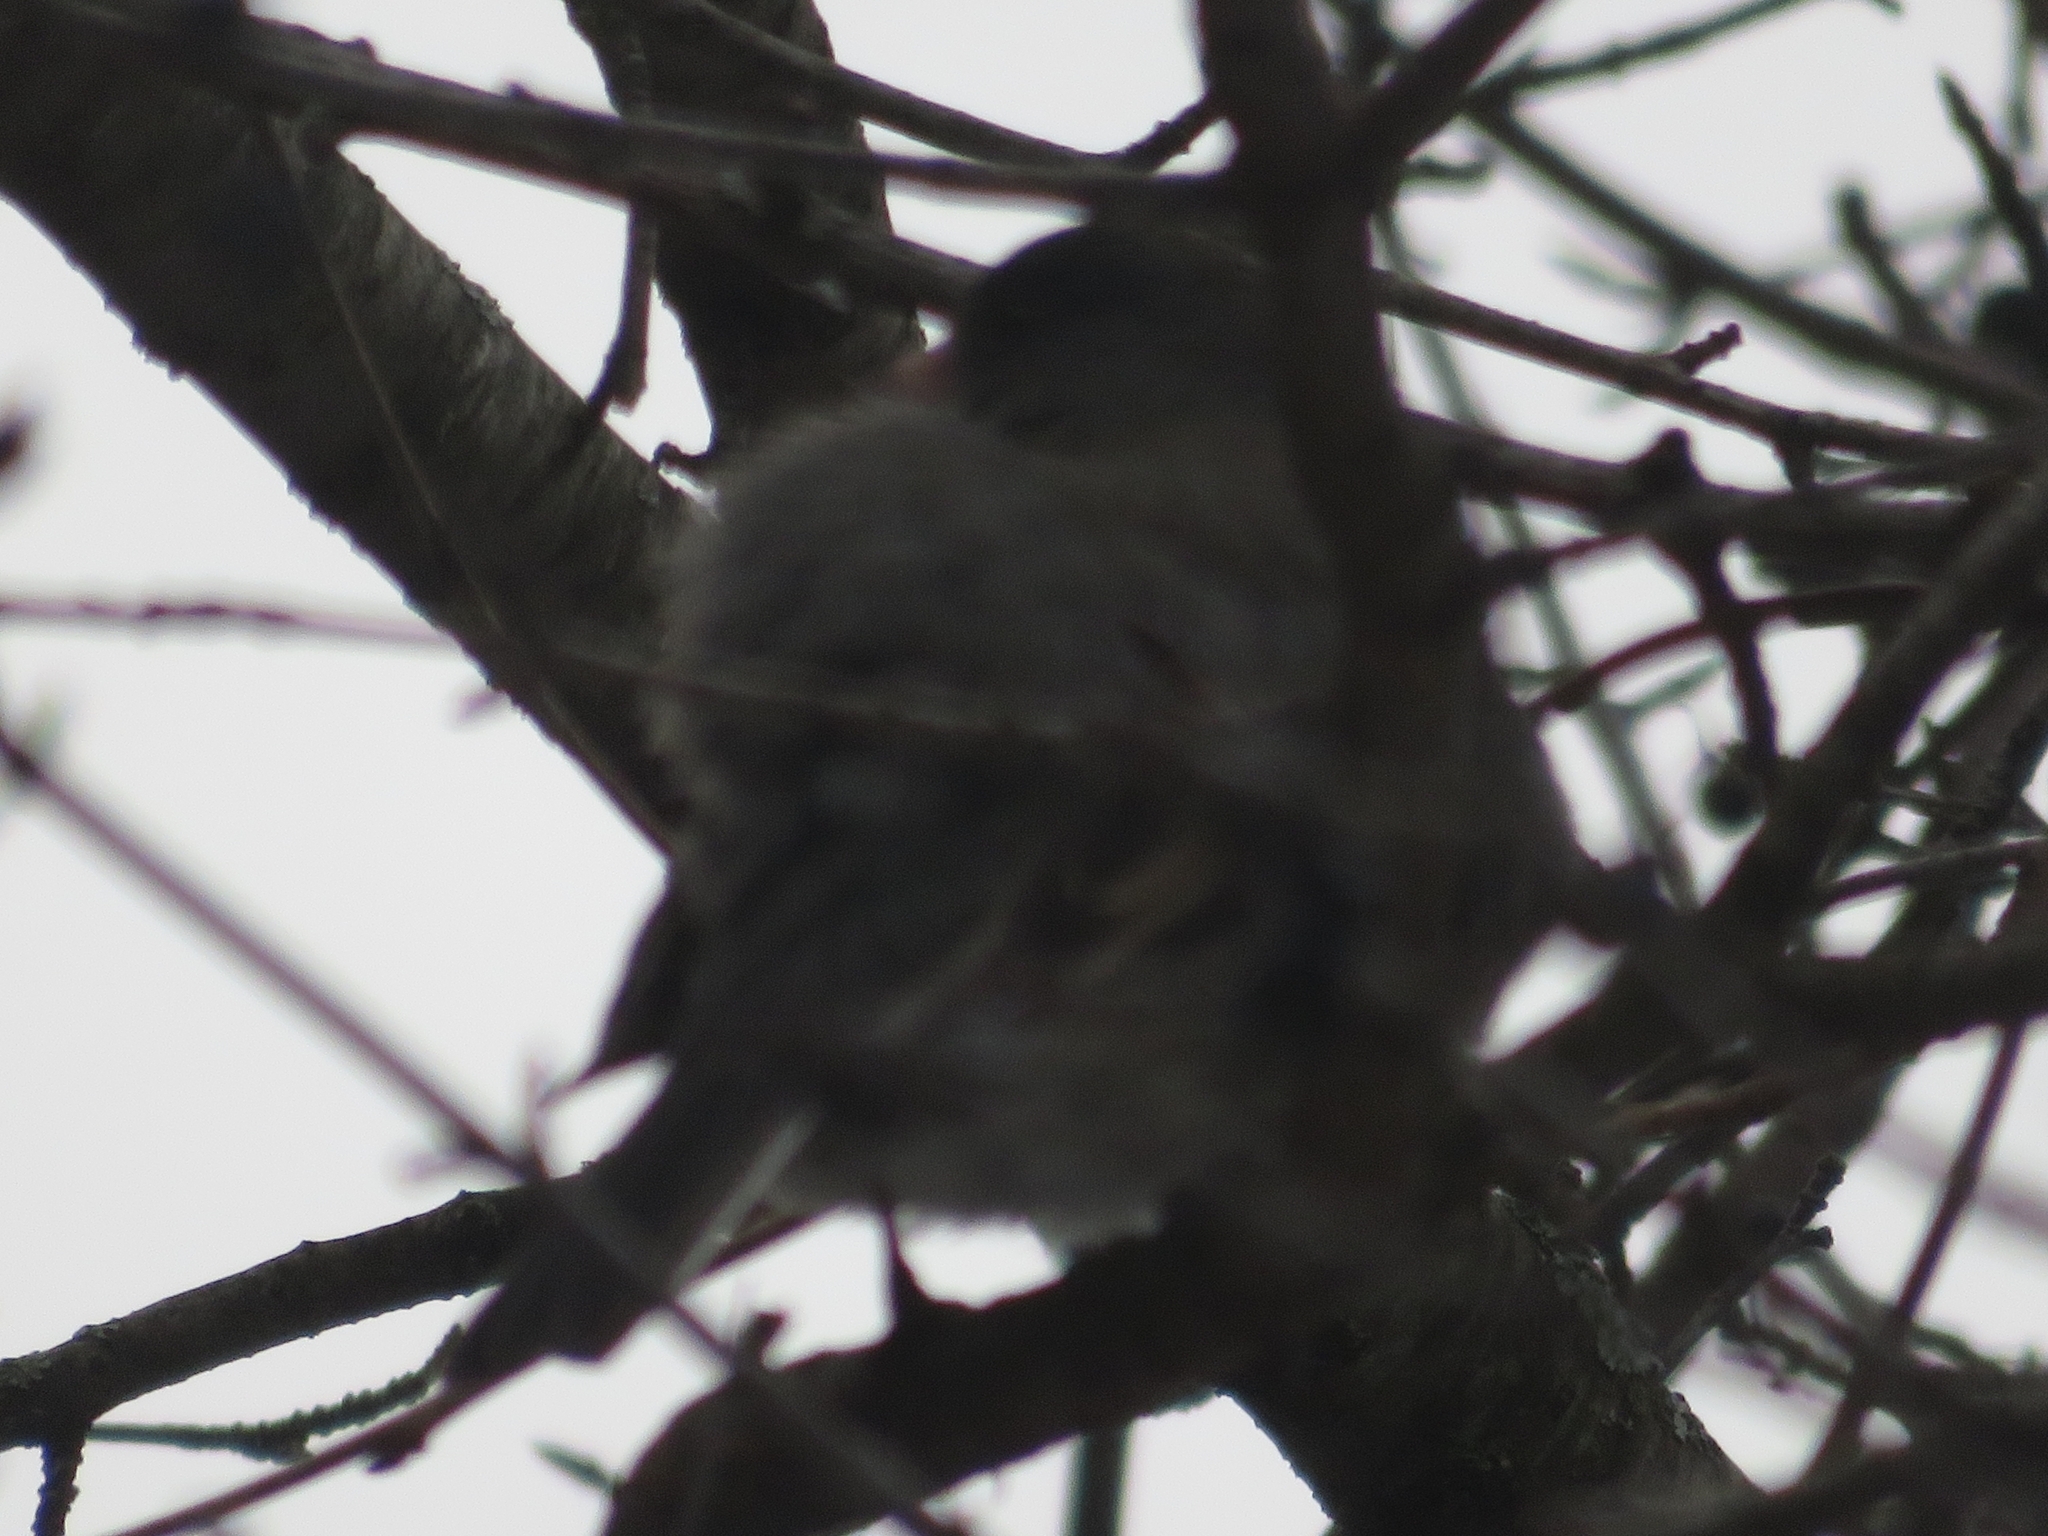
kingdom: Animalia
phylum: Chordata
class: Aves
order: Passeriformes
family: Passerellidae
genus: Junco
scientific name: Junco hyemalis
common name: Dark-eyed junco
